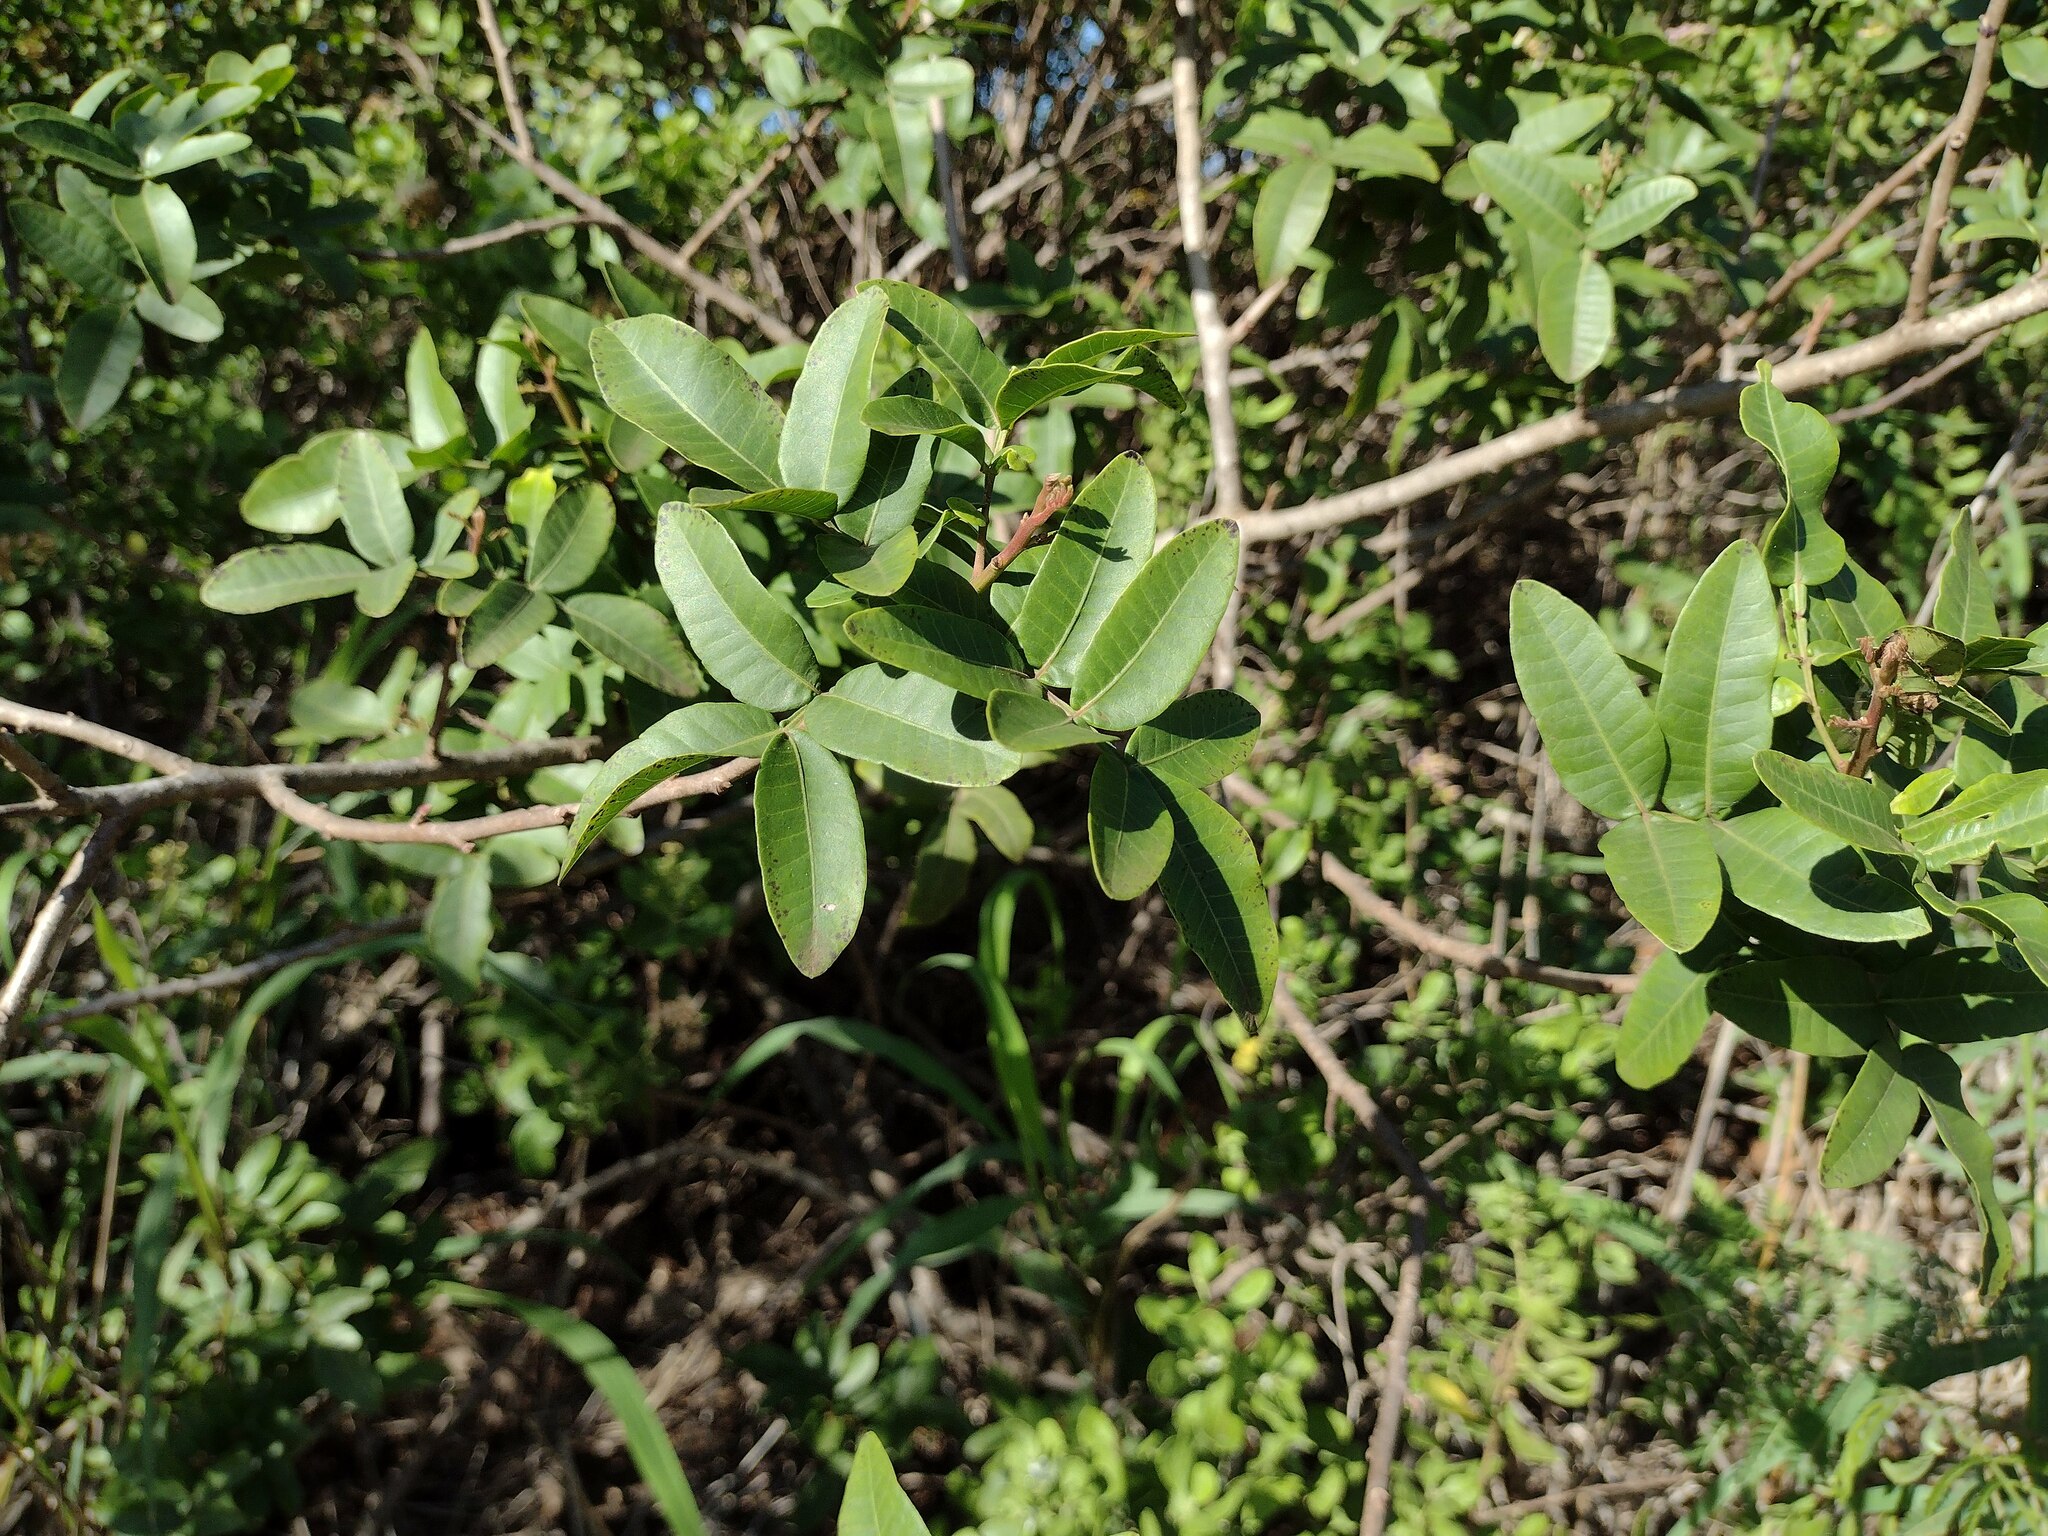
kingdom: Plantae
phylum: Tracheophyta
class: Magnoliopsida
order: Sapindales
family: Anacardiaceae
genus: Schinus
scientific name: Schinus terebinthifolia
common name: Brazilian peppertree
